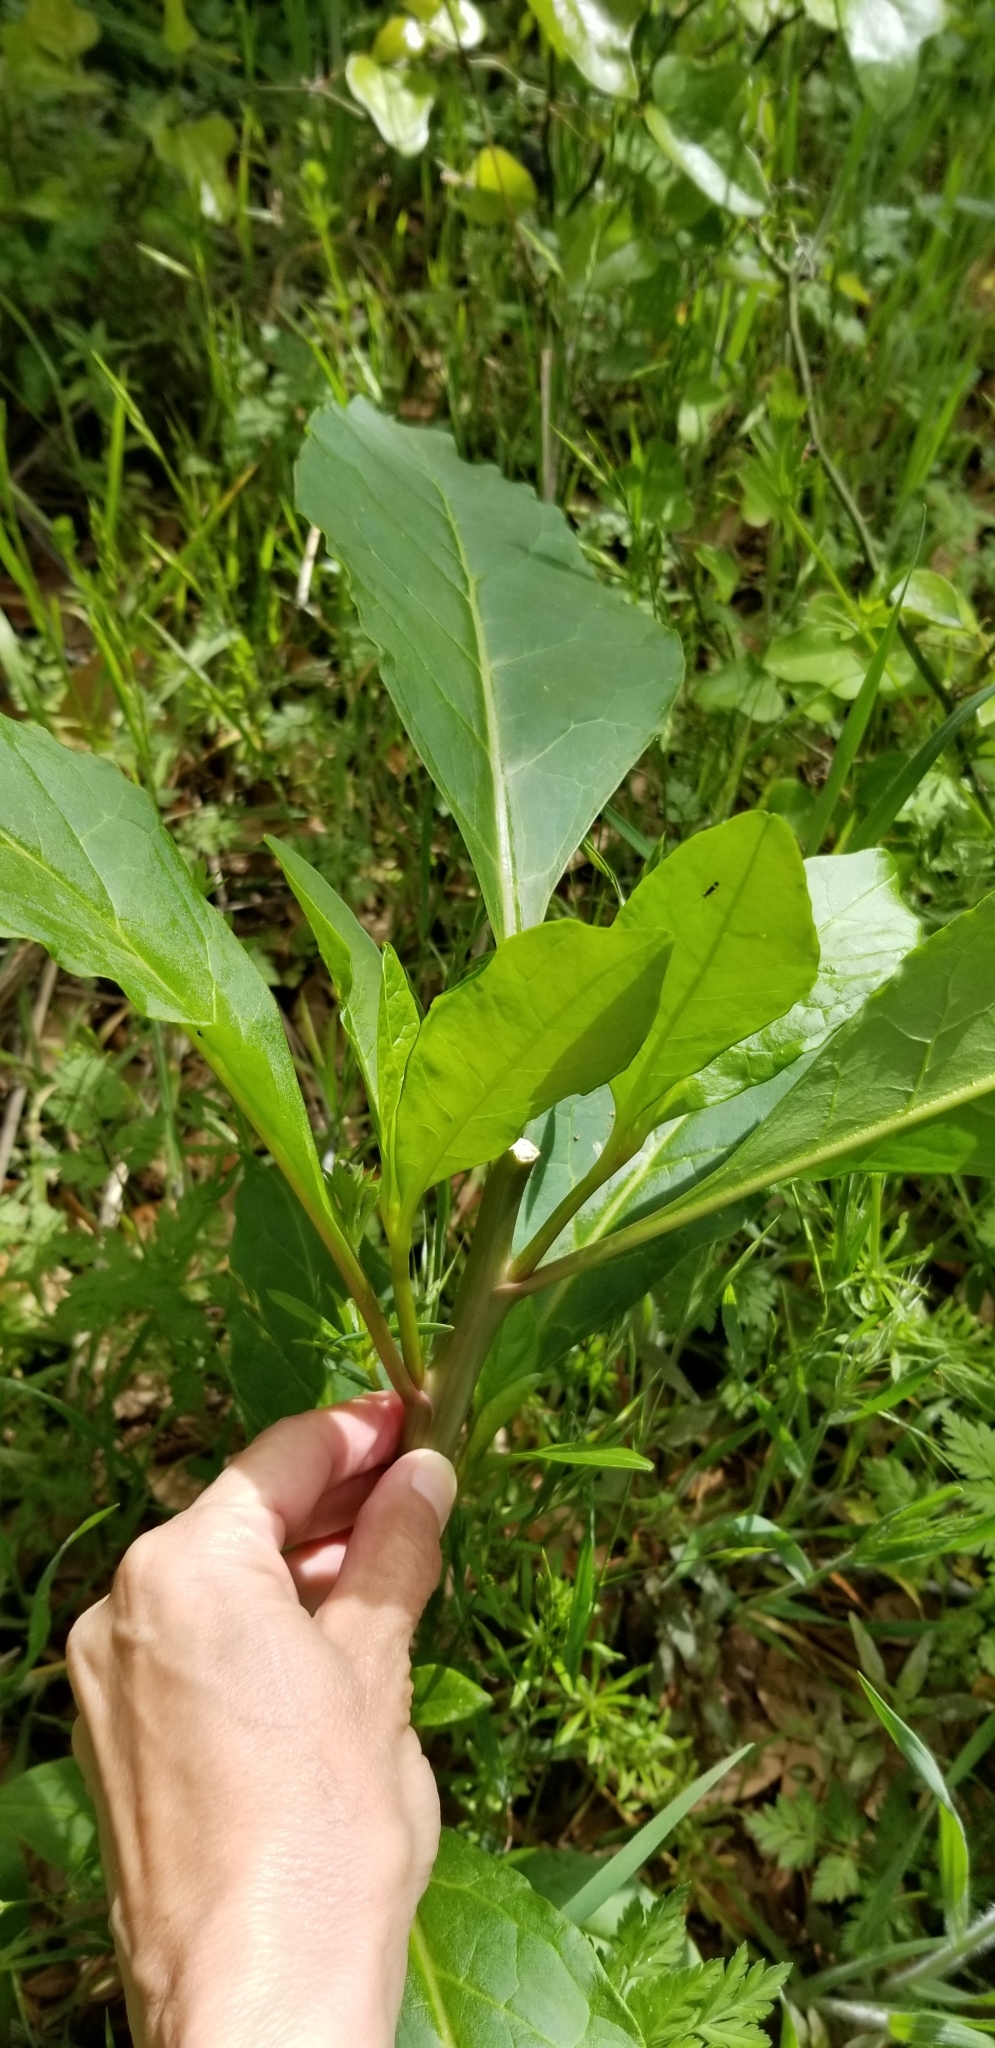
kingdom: Plantae
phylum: Tracheophyta
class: Magnoliopsida
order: Caryophyllales
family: Phytolaccaceae
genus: Phytolacca
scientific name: Phytolacca americana
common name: American pokeweed
